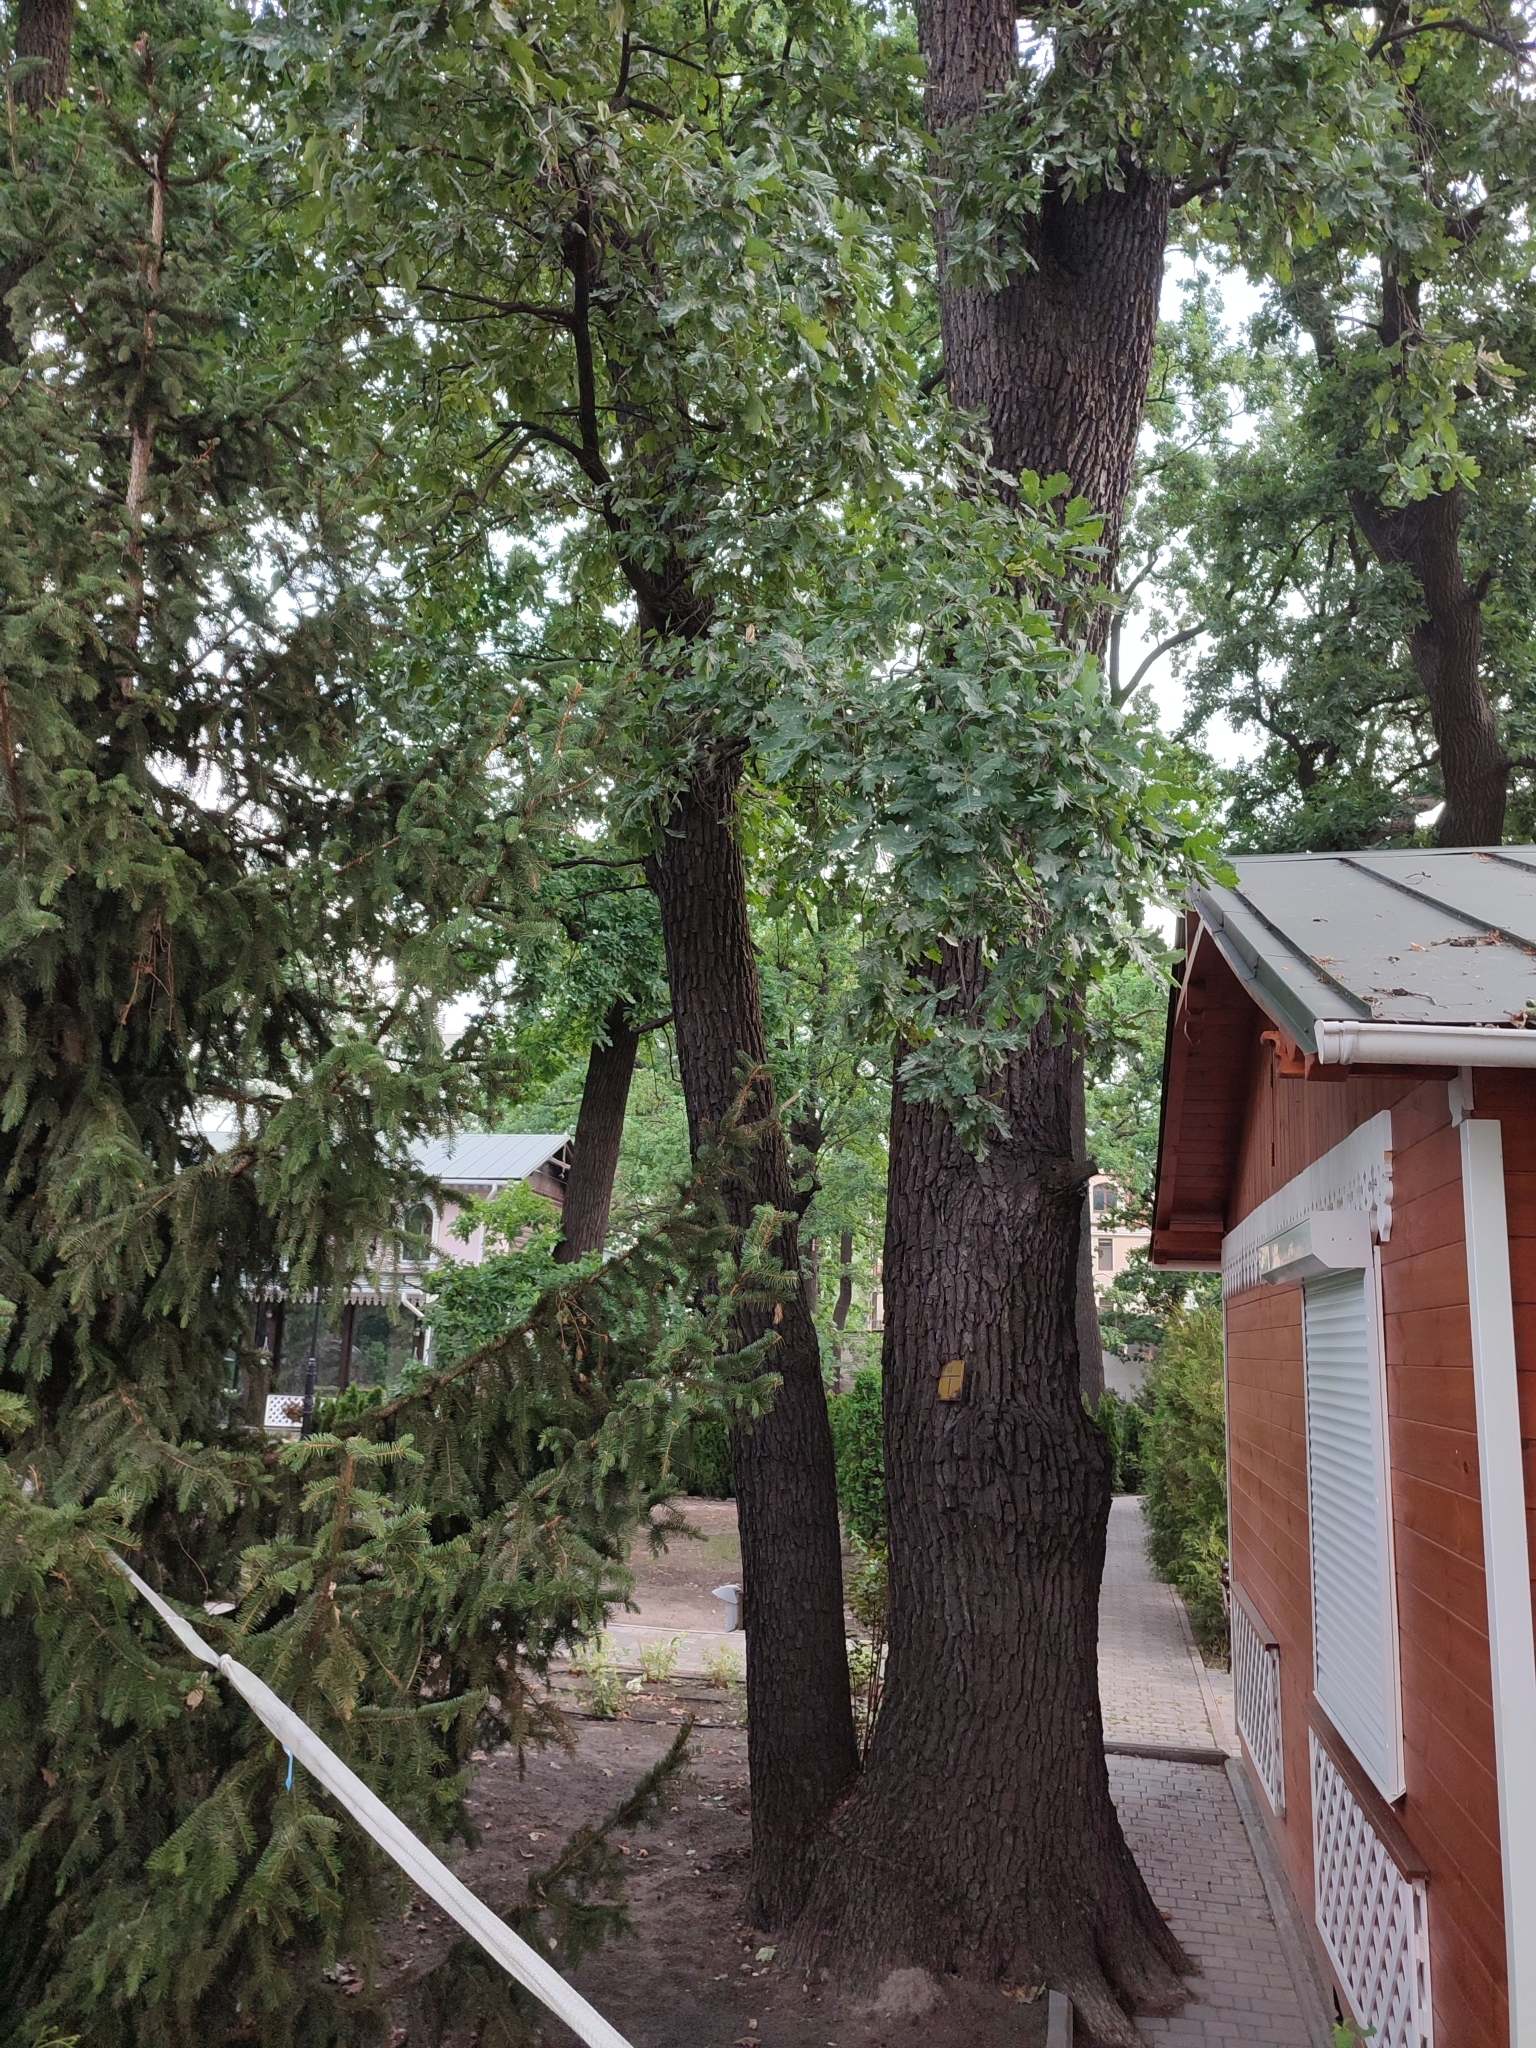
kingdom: Plantae
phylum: Tracheophyta
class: Magnoliopsida
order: Fagales
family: Fagaceae
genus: Quercus
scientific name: Quercus robur
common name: Pedunculate oak
